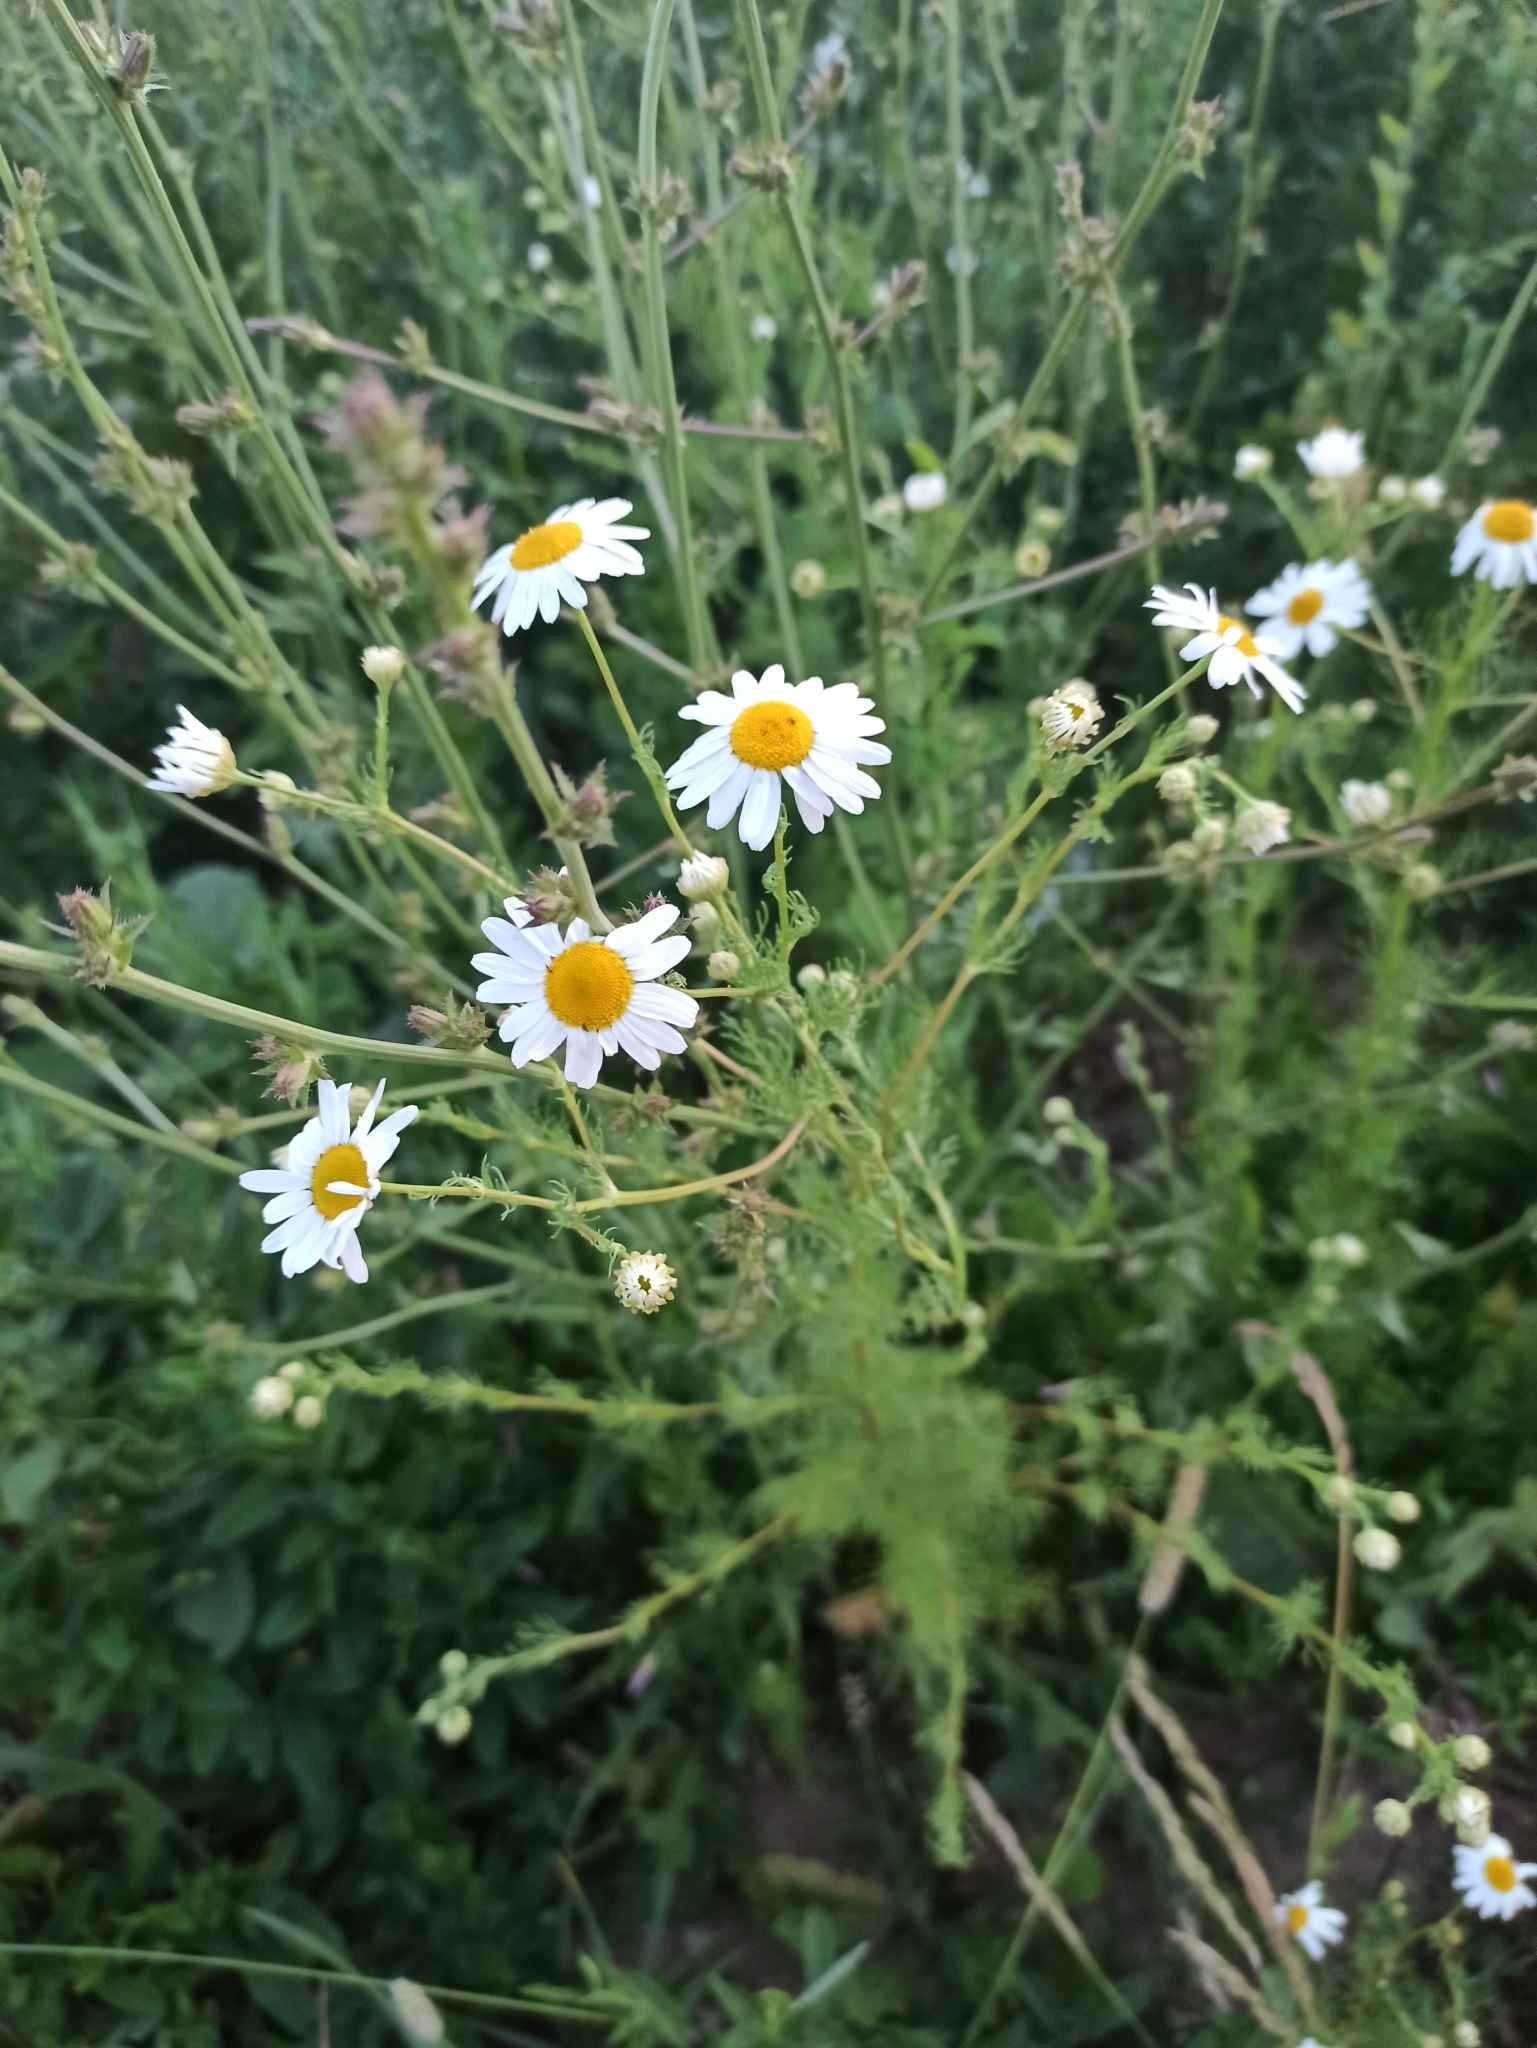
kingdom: Plantae
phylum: Tracheophyta
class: Magnoliopsida
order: Asterales
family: Asteraceae
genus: Tripleurospermum
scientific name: Tripleurospermum inodorum
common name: Scentless mayweed
